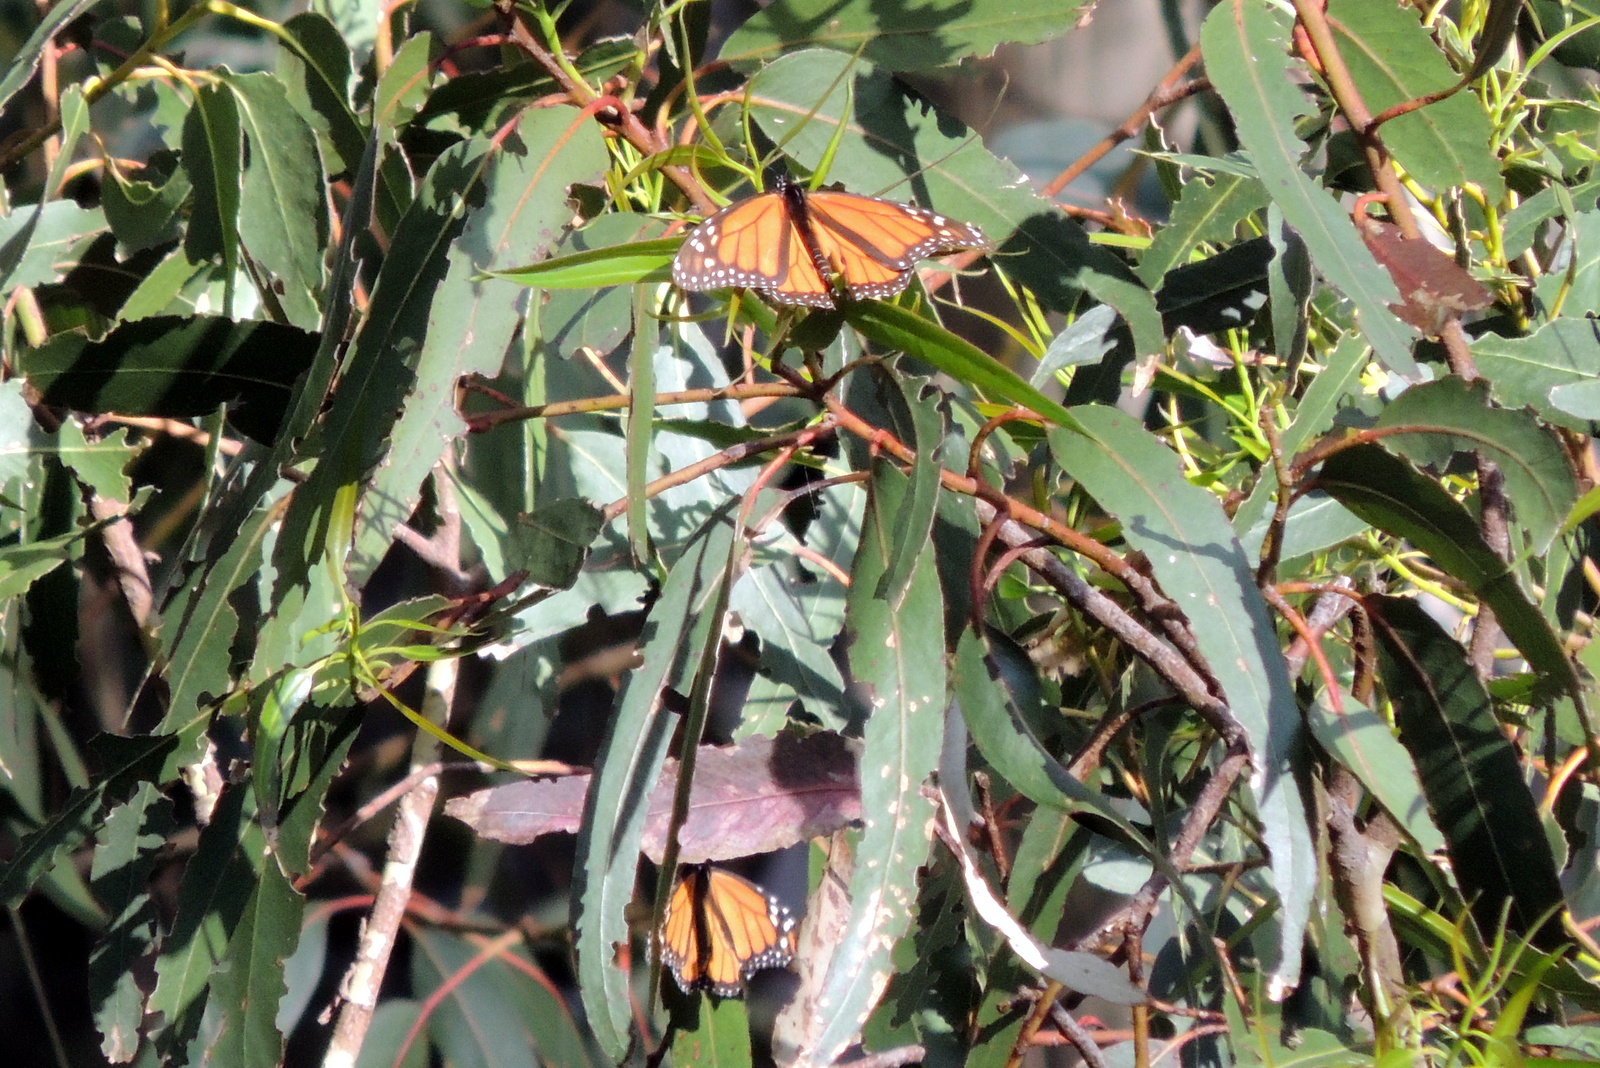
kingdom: Animalia
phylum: Arthropoda
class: Insecta
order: Lepidoptera
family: Nymphalidae
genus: Danaus
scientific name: Danaus plexippus
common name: Monarch
